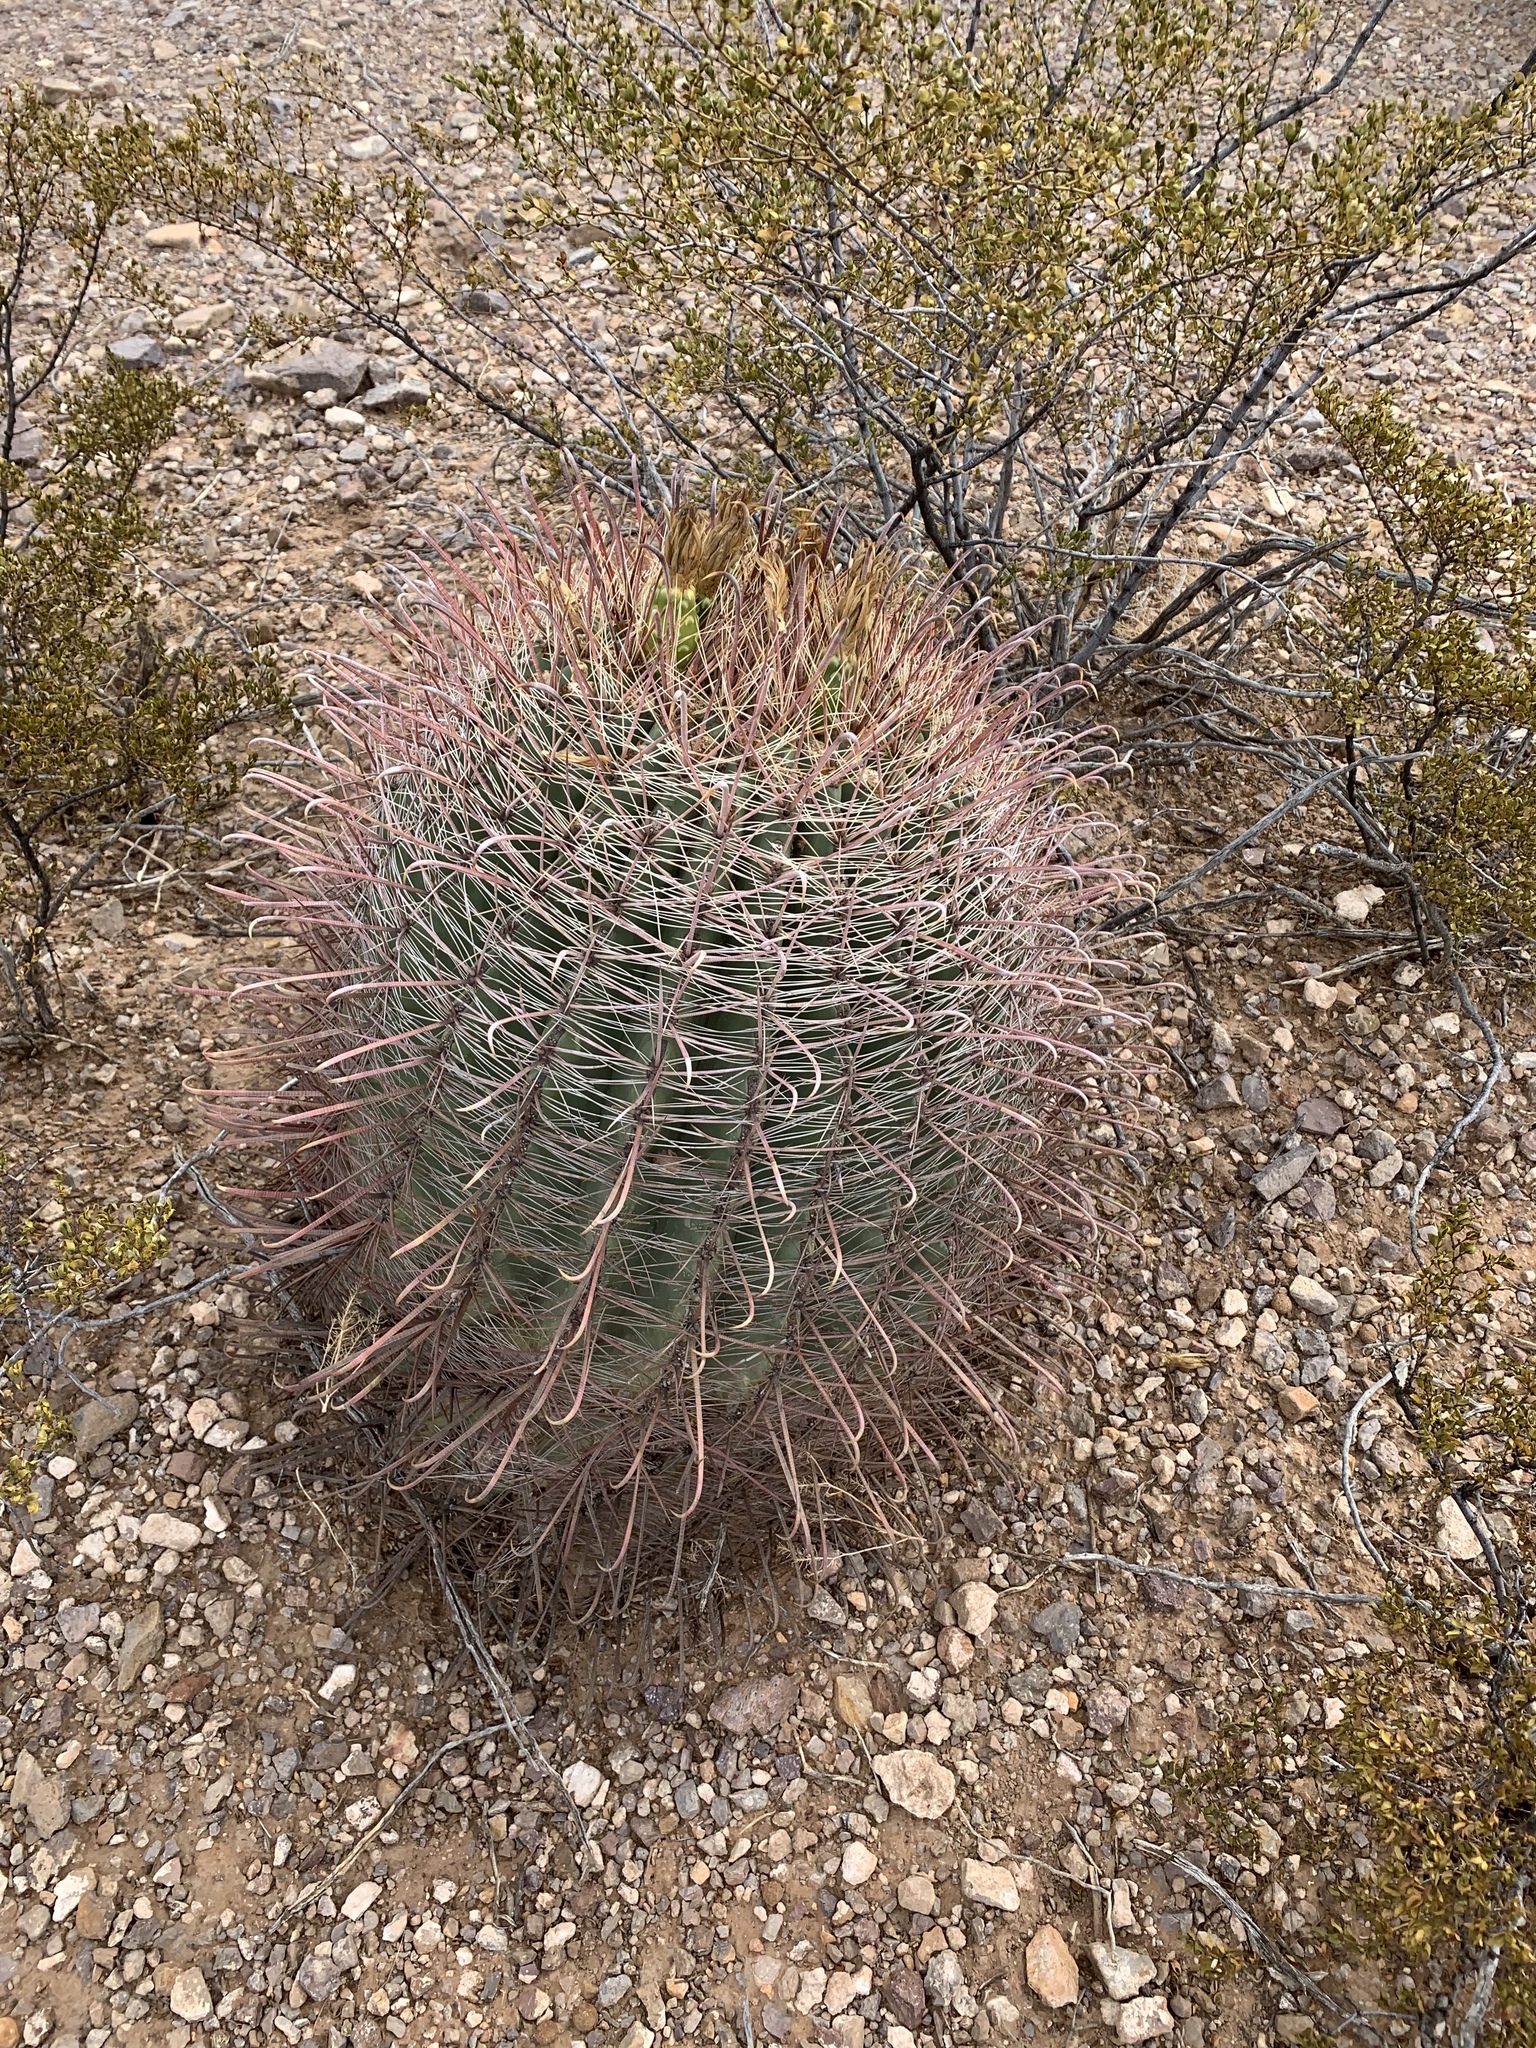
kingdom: Plantae
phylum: Tracheophyta
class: Magnoliopsida
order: Caryophyllales
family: Cactaceae
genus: Ferocactus
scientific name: Ferocactus wislizeni
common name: Candy barrel cactus
